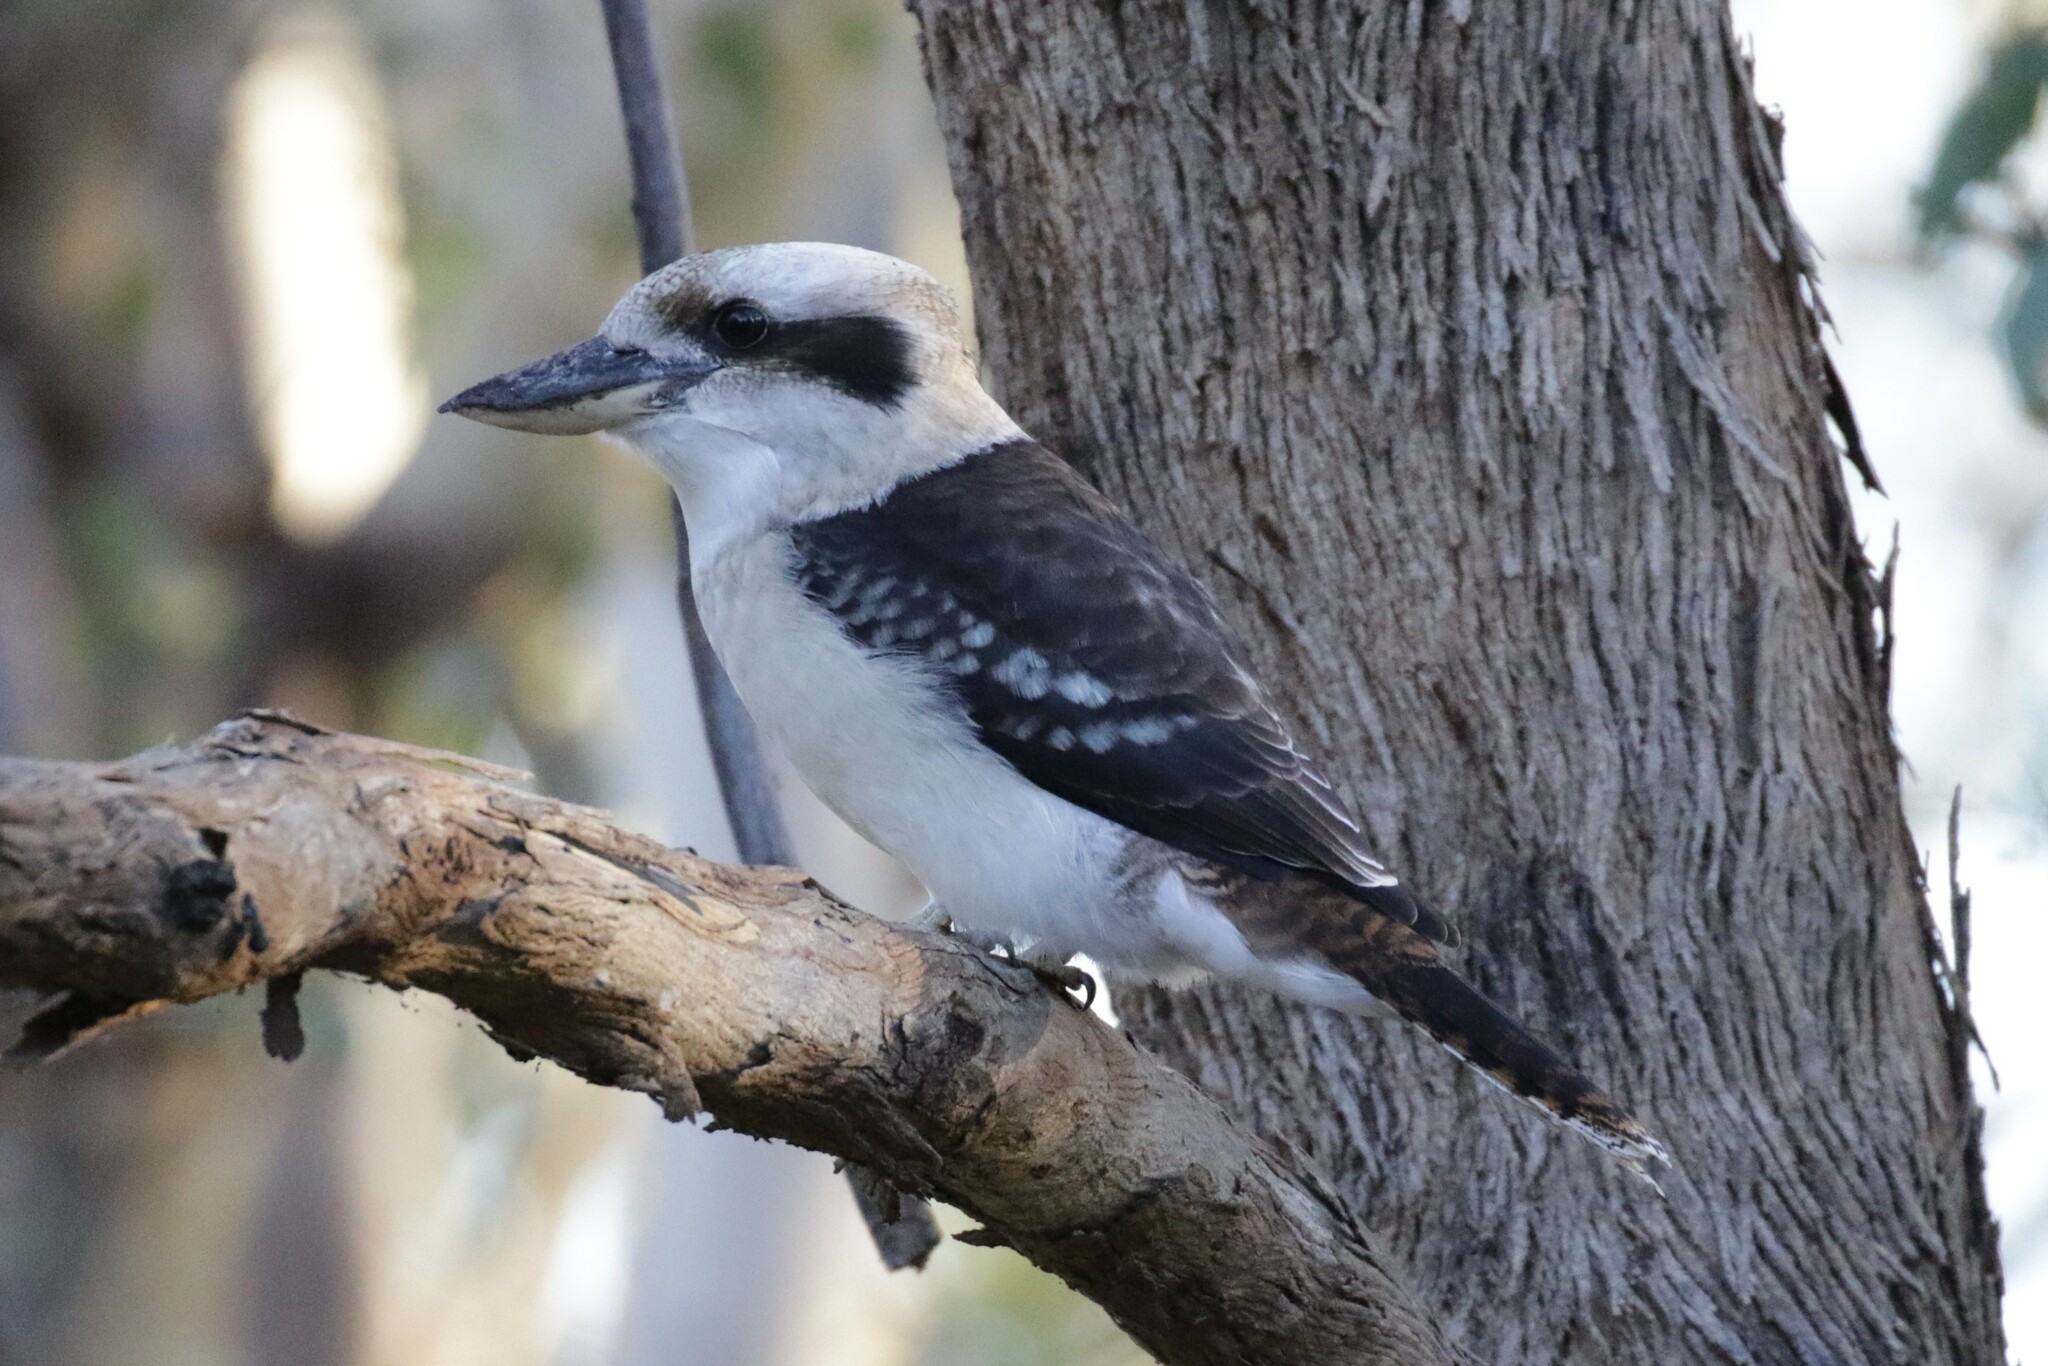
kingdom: Animalia
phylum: Chordata
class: Aves
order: Coraciiformes
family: Alcedinidae
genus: Dacelo
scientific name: Dacelo novaeguineae
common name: Laughing kookaburra
